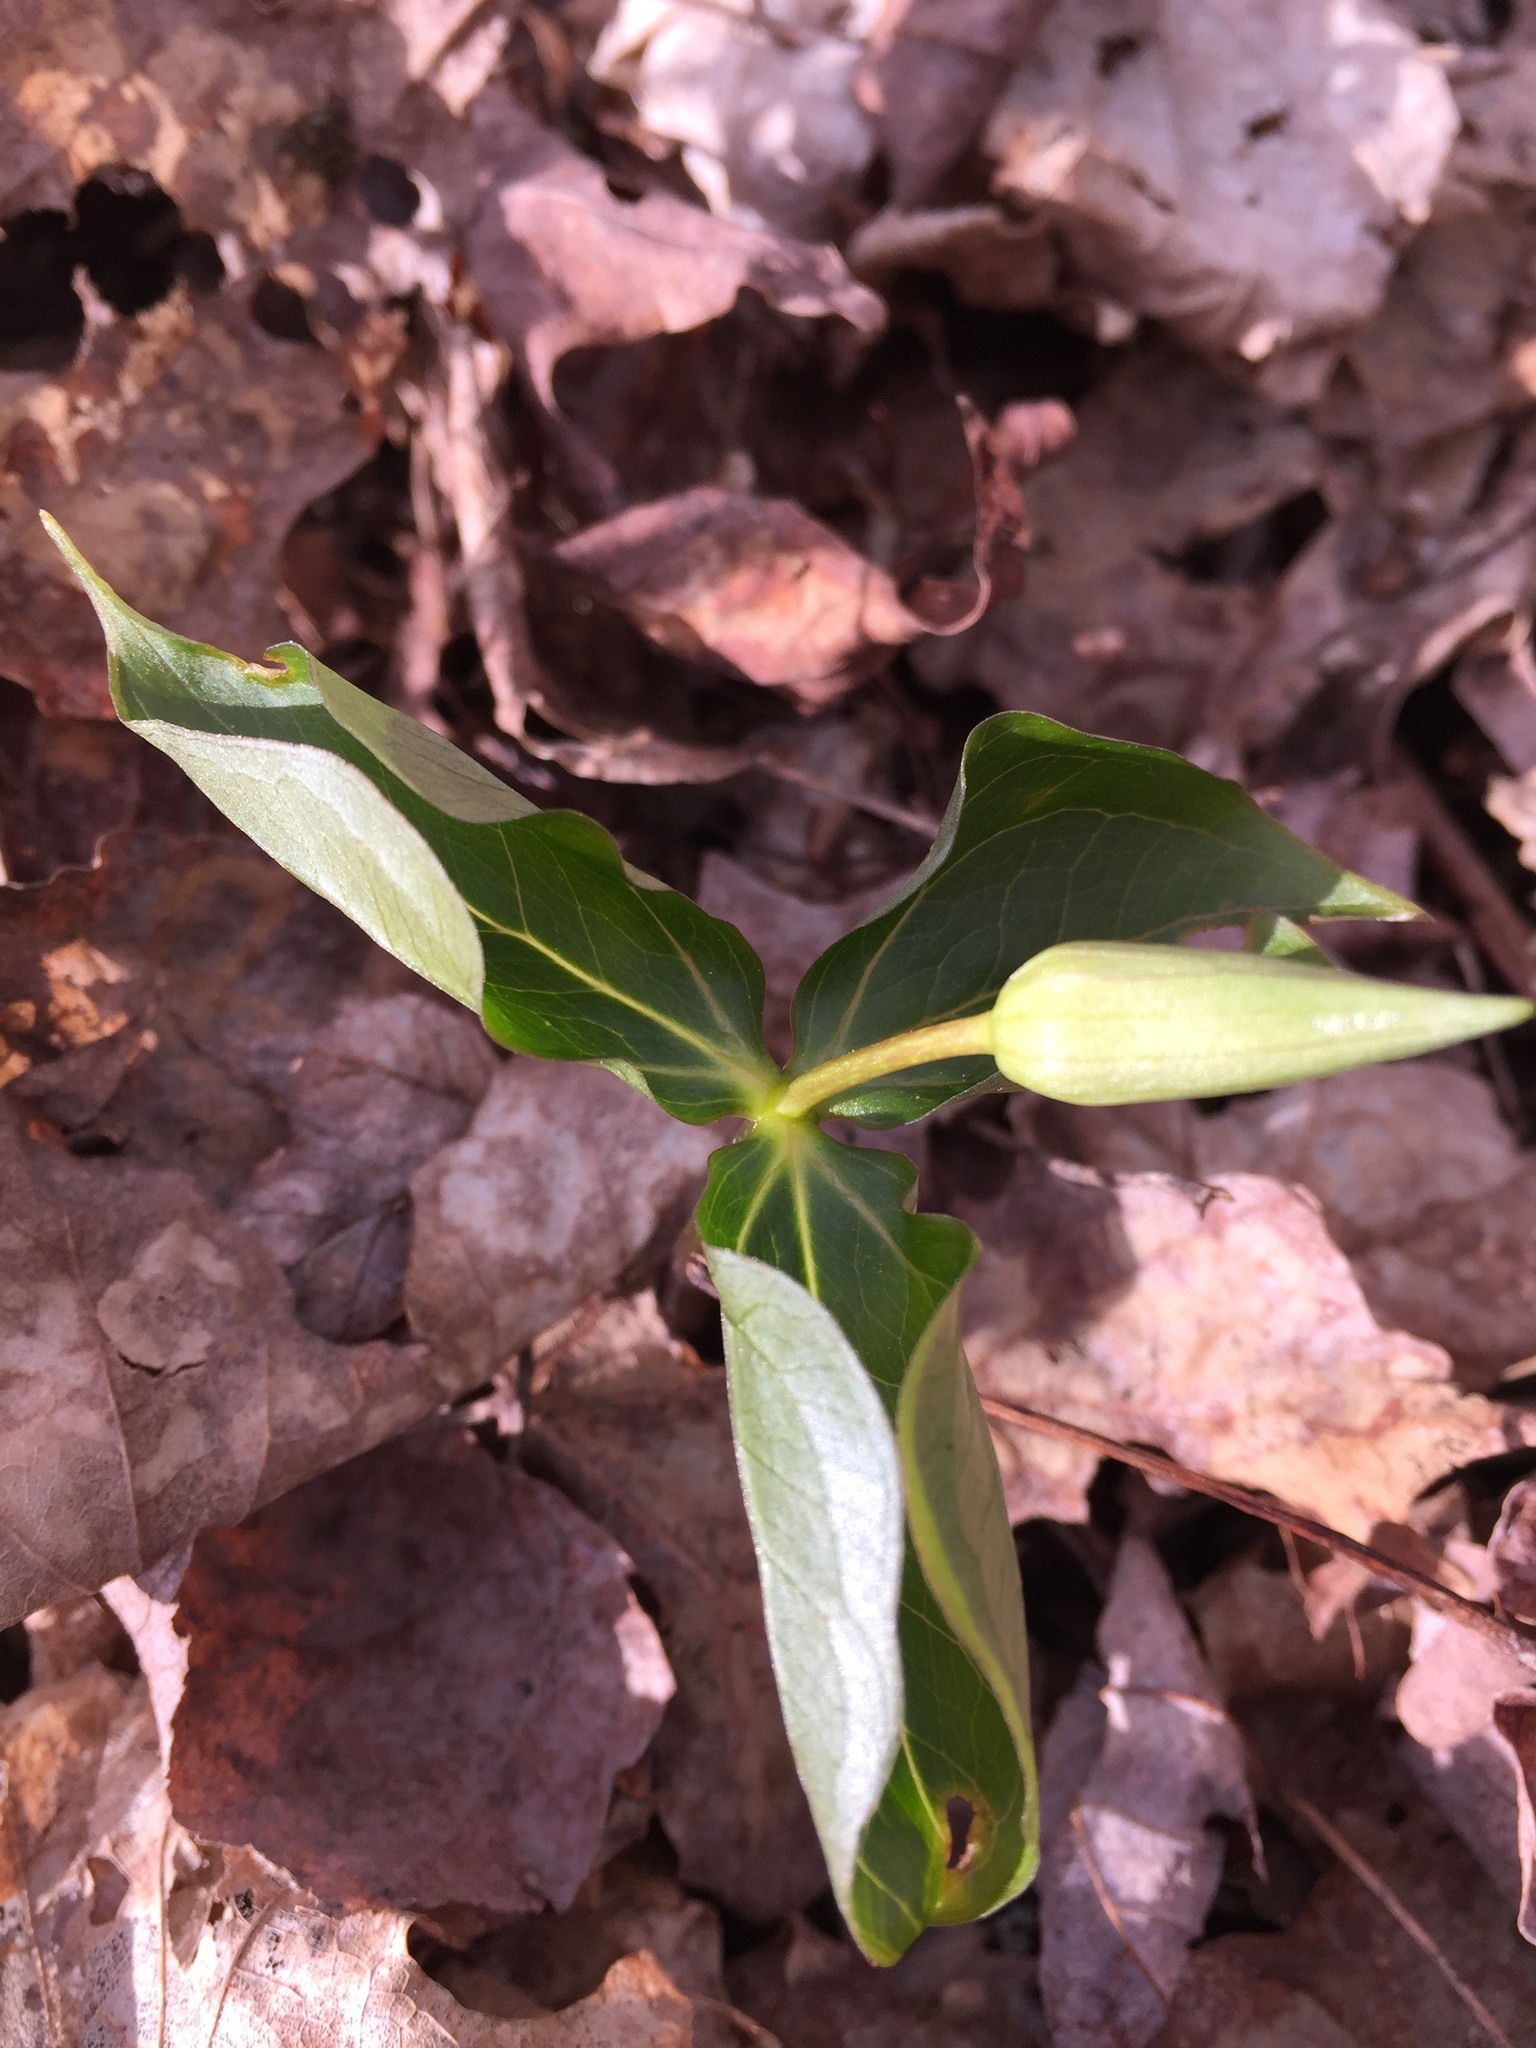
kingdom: Plantae
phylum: Tracheophyta
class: Liliopsida
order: Liliales
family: Melanthiaceae
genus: Trillium
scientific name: Trillium erectum
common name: Purple trillium
